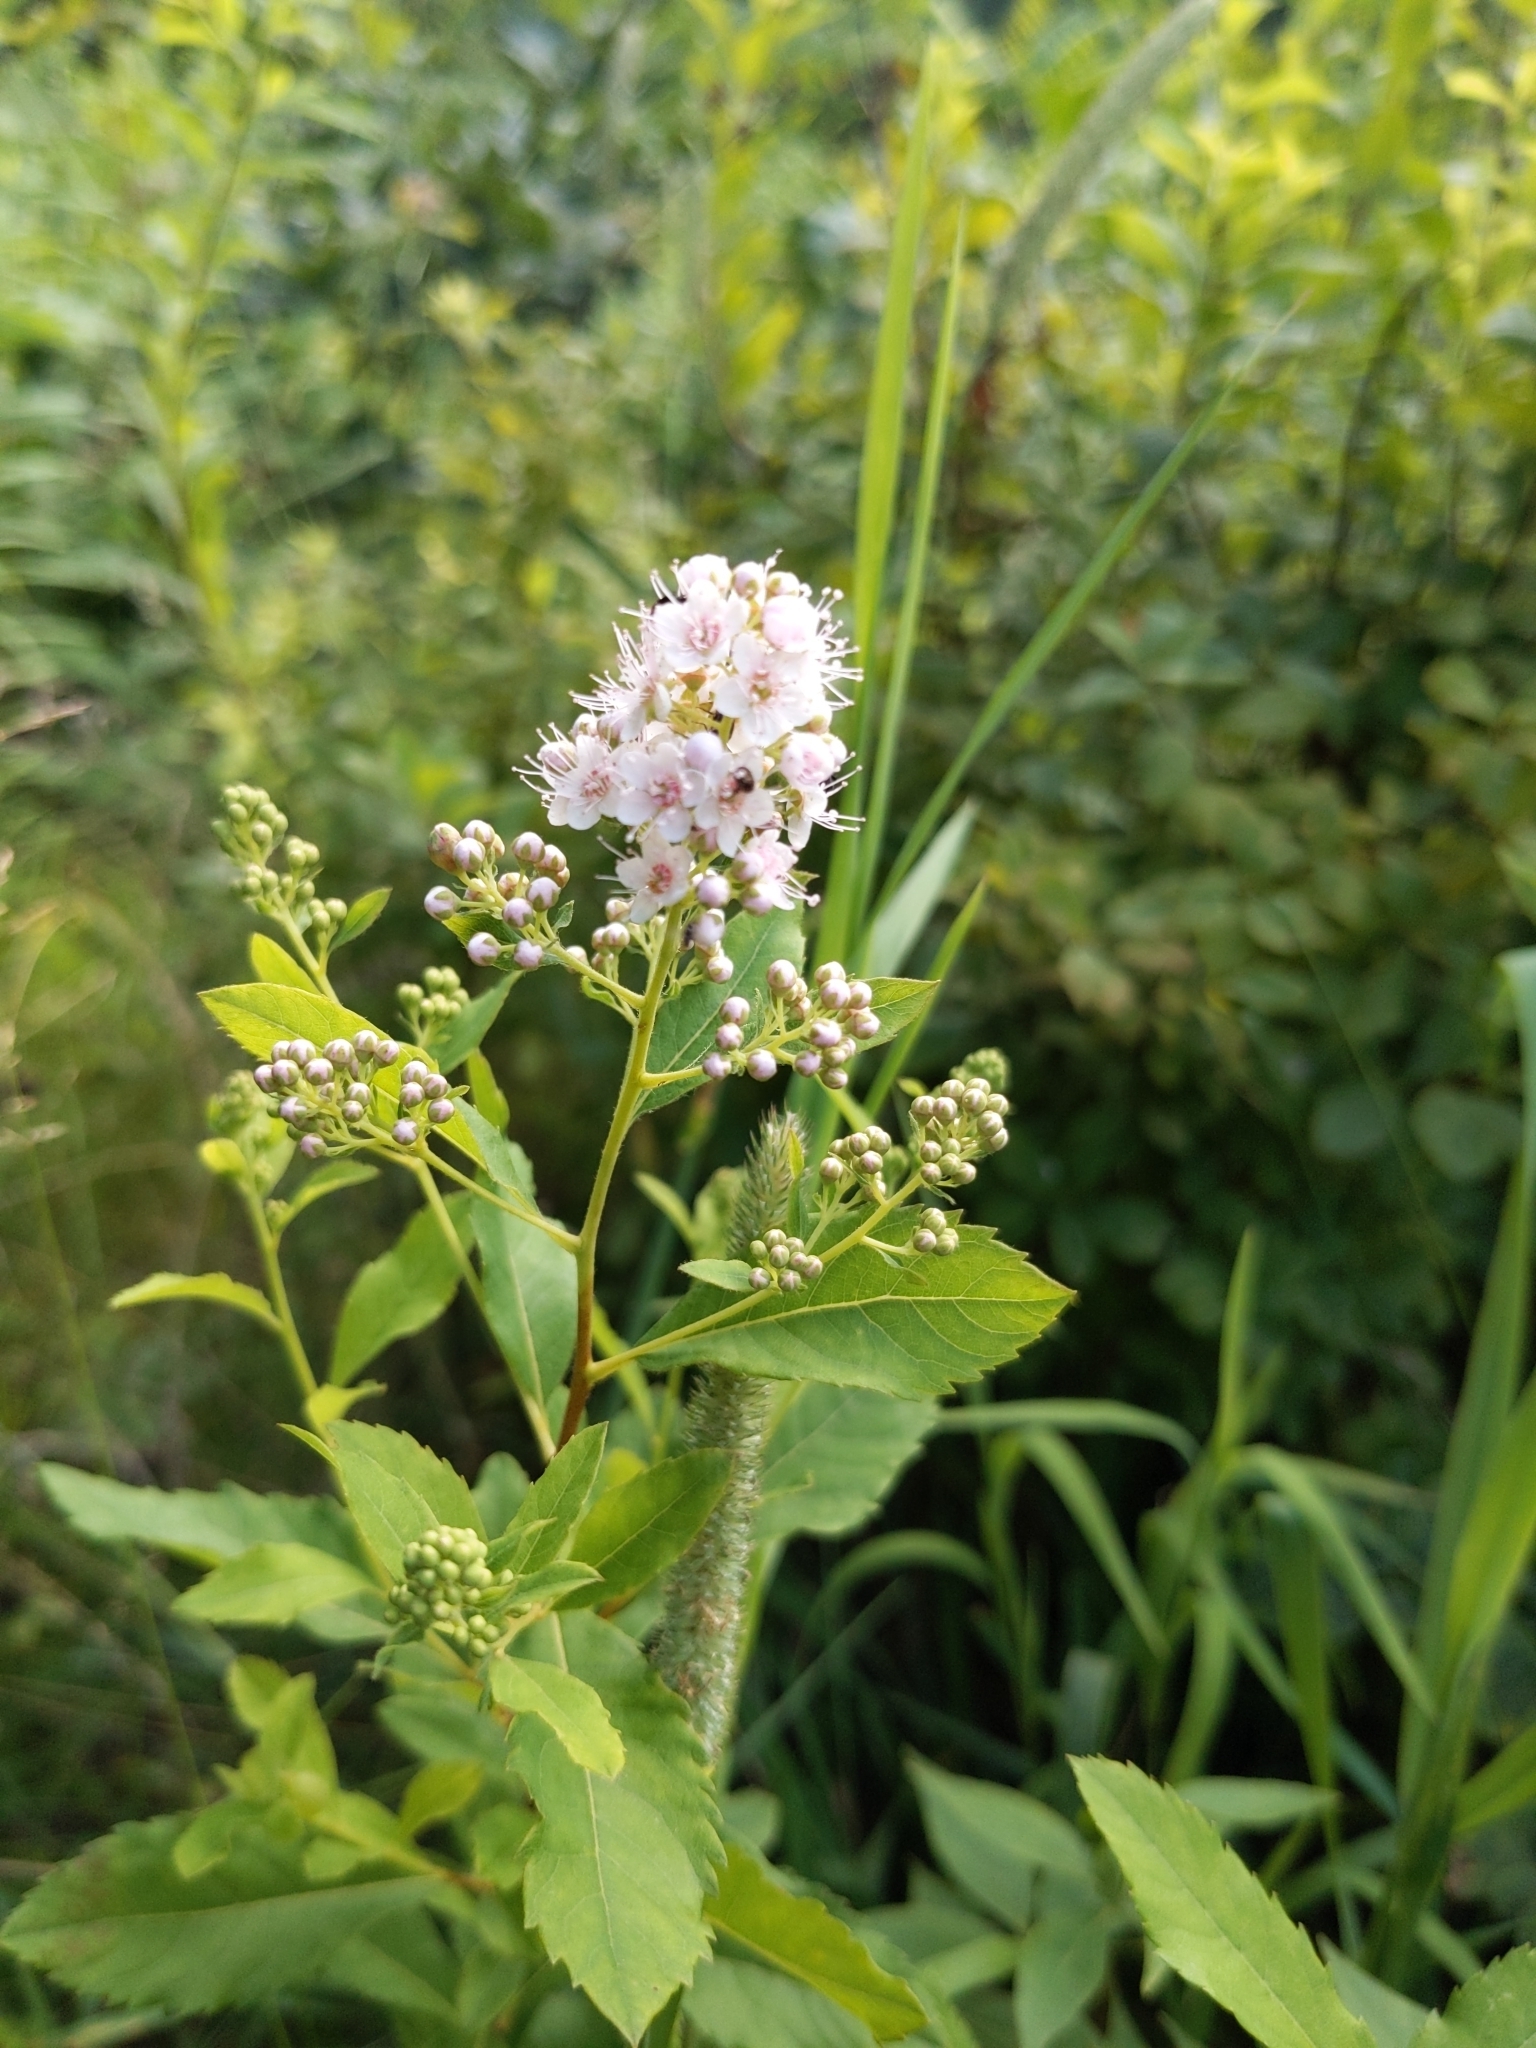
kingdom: Plantae
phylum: Tracheophyta
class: Magnoliopsida
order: Rosales
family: Rosaceae
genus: Spiraea
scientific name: Spiraea alba
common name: Pale bridewort
